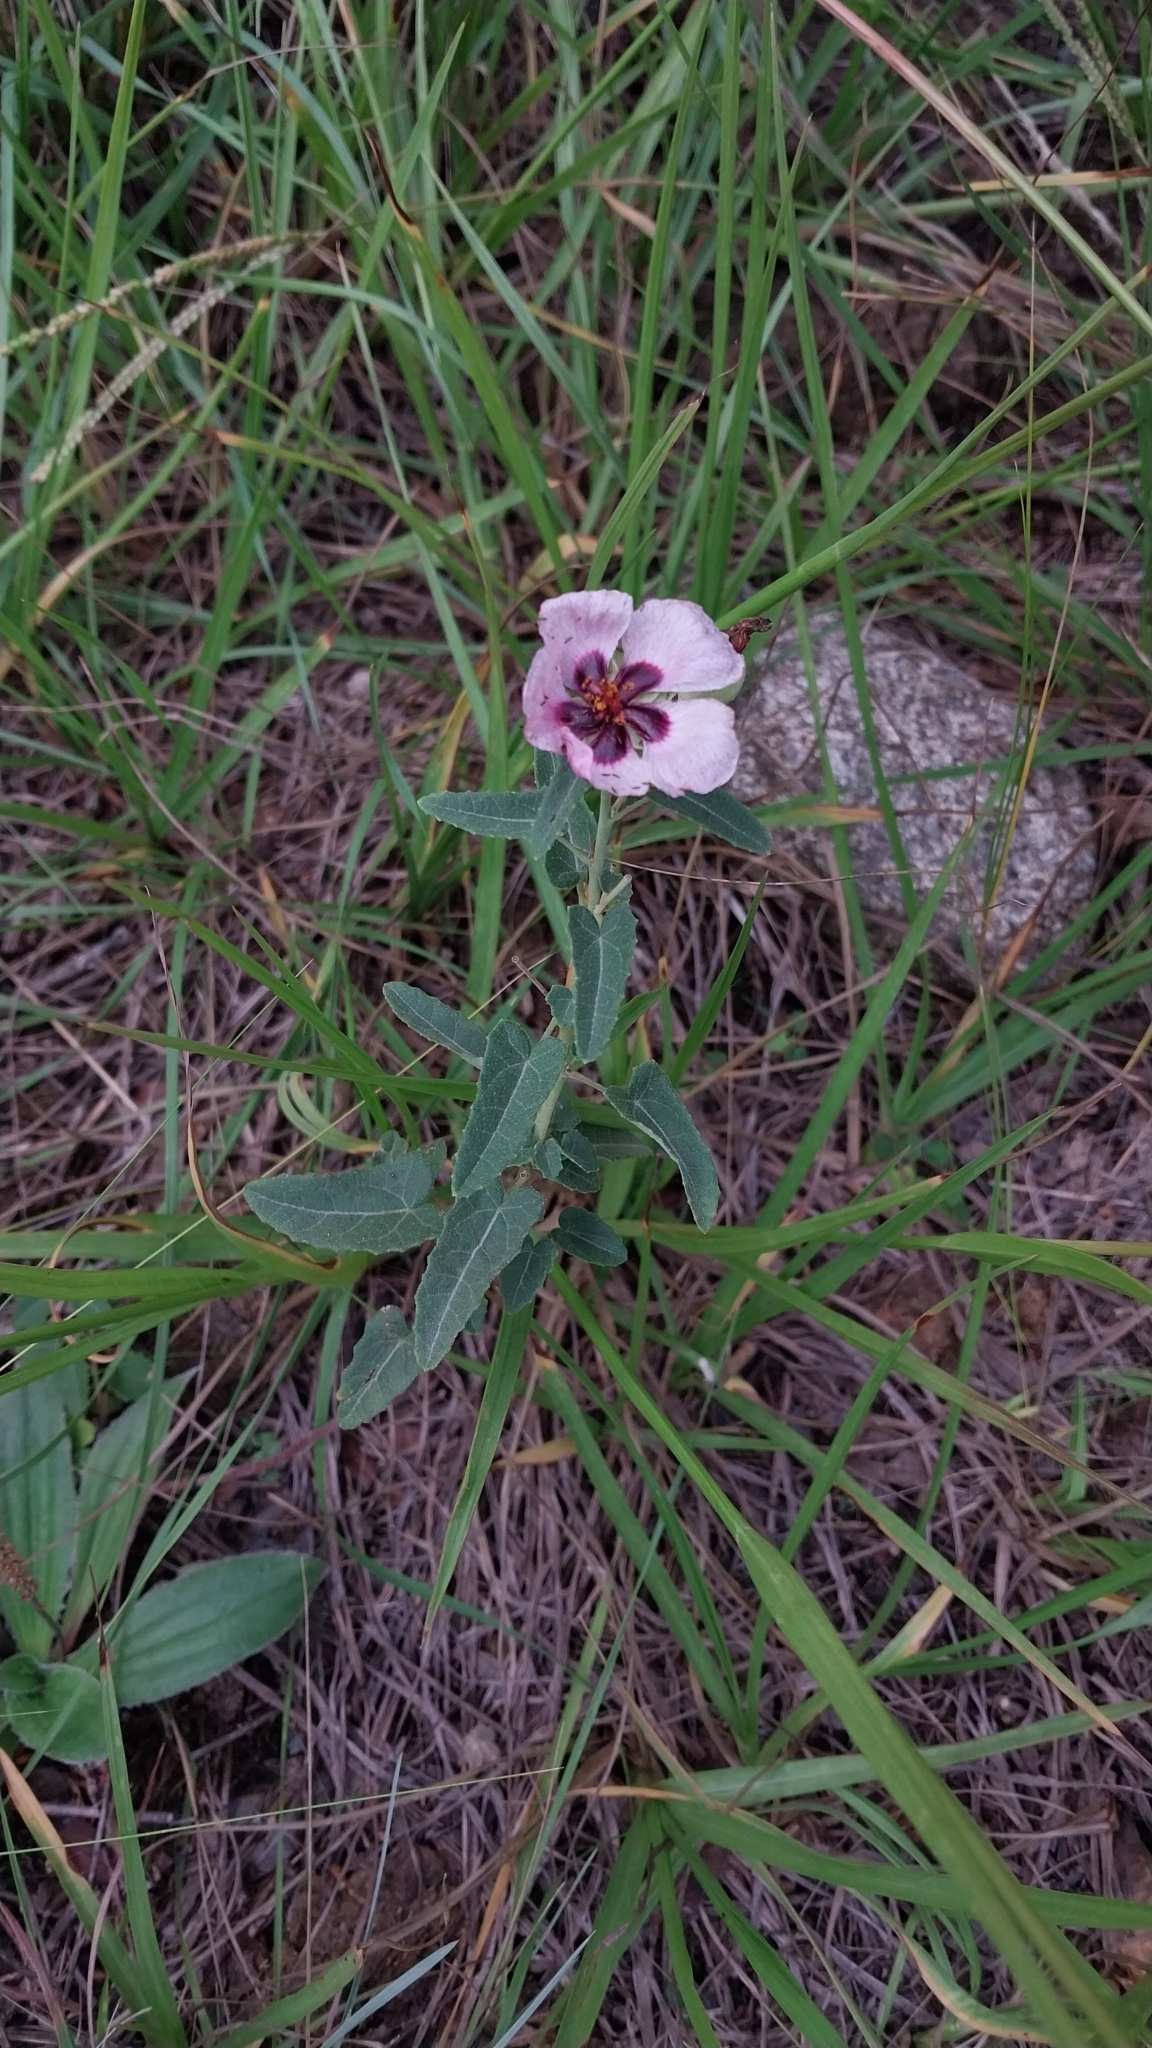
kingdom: Plantae
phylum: Tracheophyta
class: Magnoliopsida
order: Malvales
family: Malvaceae
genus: Pavonia
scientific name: Pavonia aurigloba
